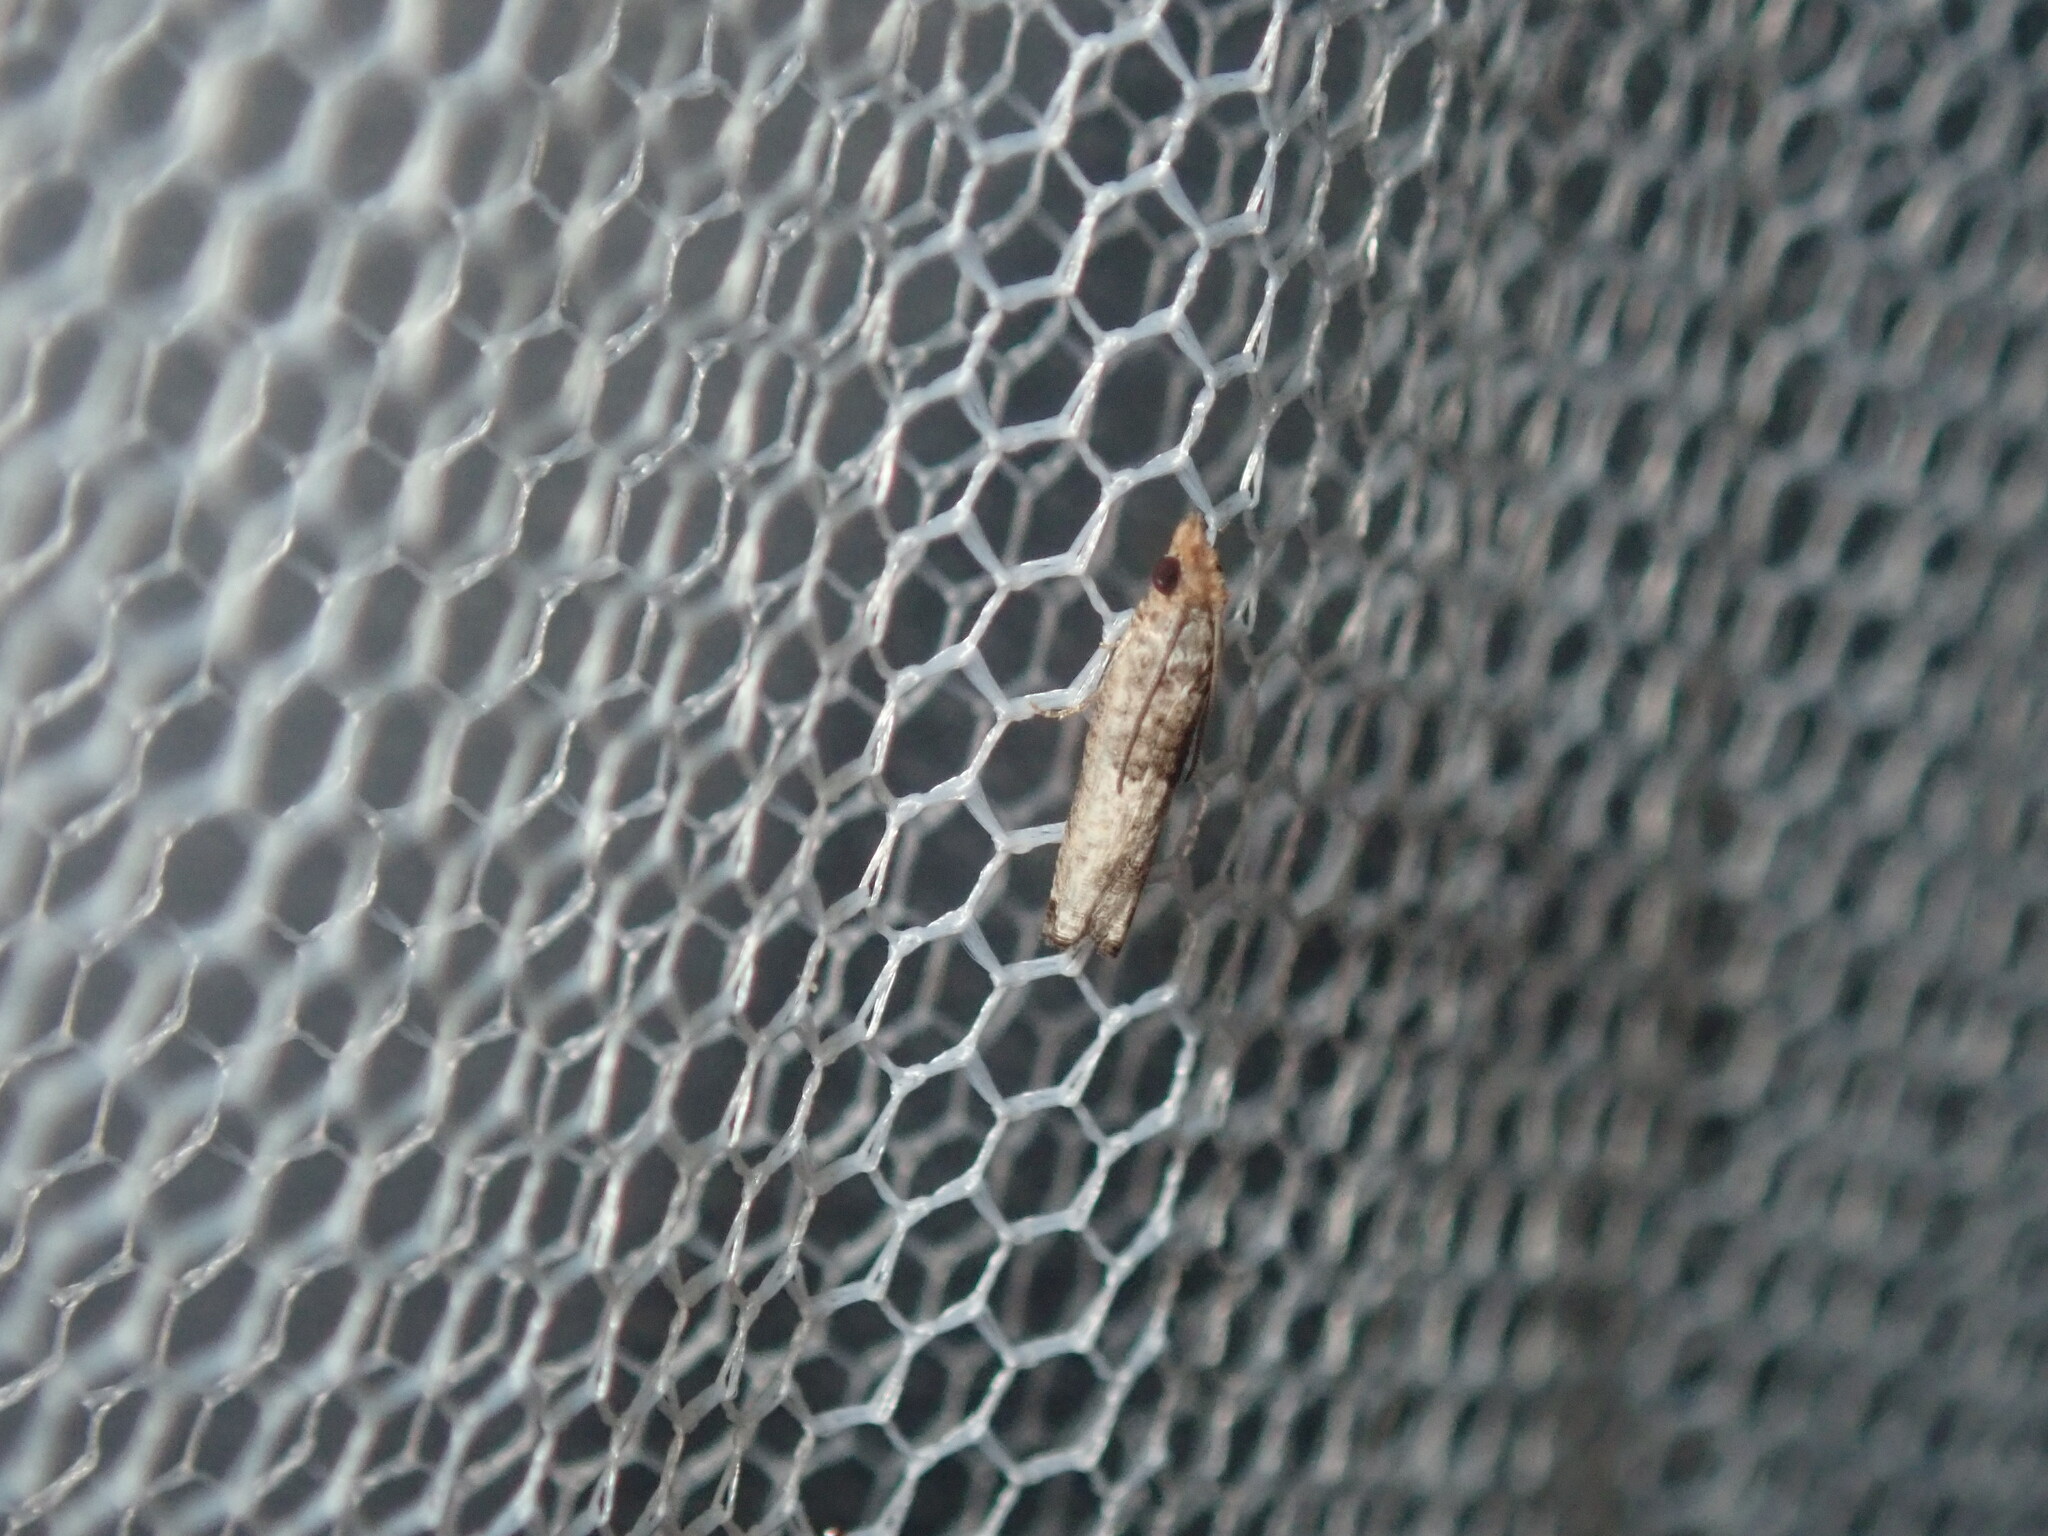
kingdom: Animalia
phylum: Arthropoda
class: Insecta
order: Lepidoptera
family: Tortricidae
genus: Spilonota
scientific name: Spilonota constrictana
